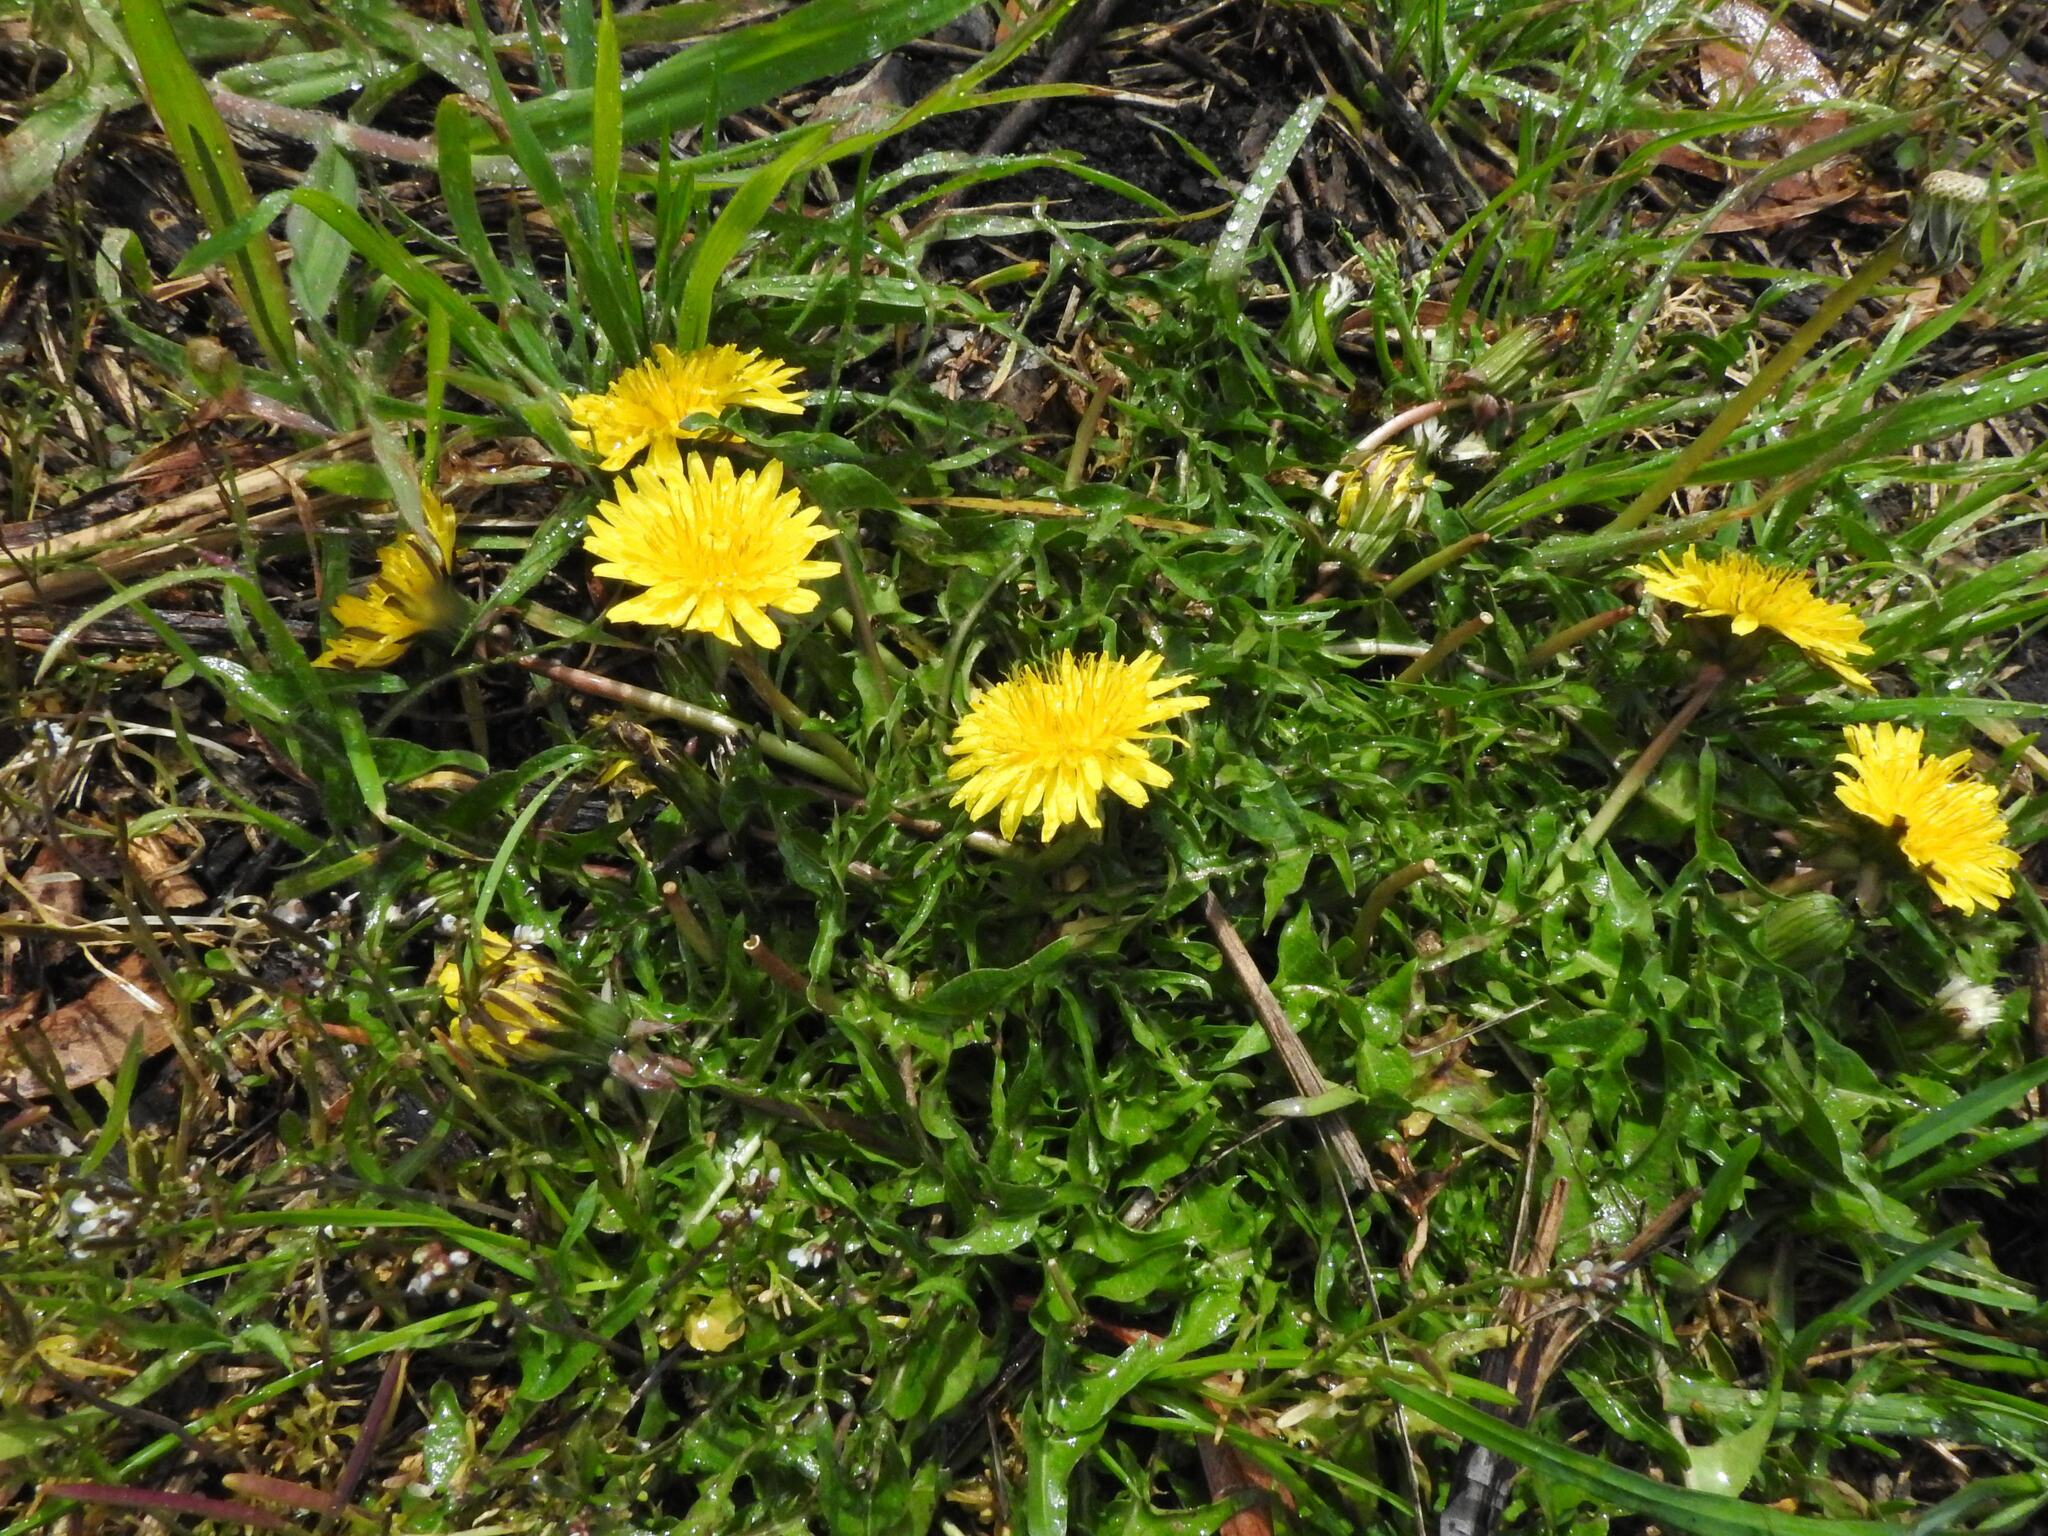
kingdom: Plantae
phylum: Tracheophyta
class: Magnoliopsida
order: Asterales
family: Asteraceae
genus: Taraxacum
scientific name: Taraxacum officinale
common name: Common dandelion
